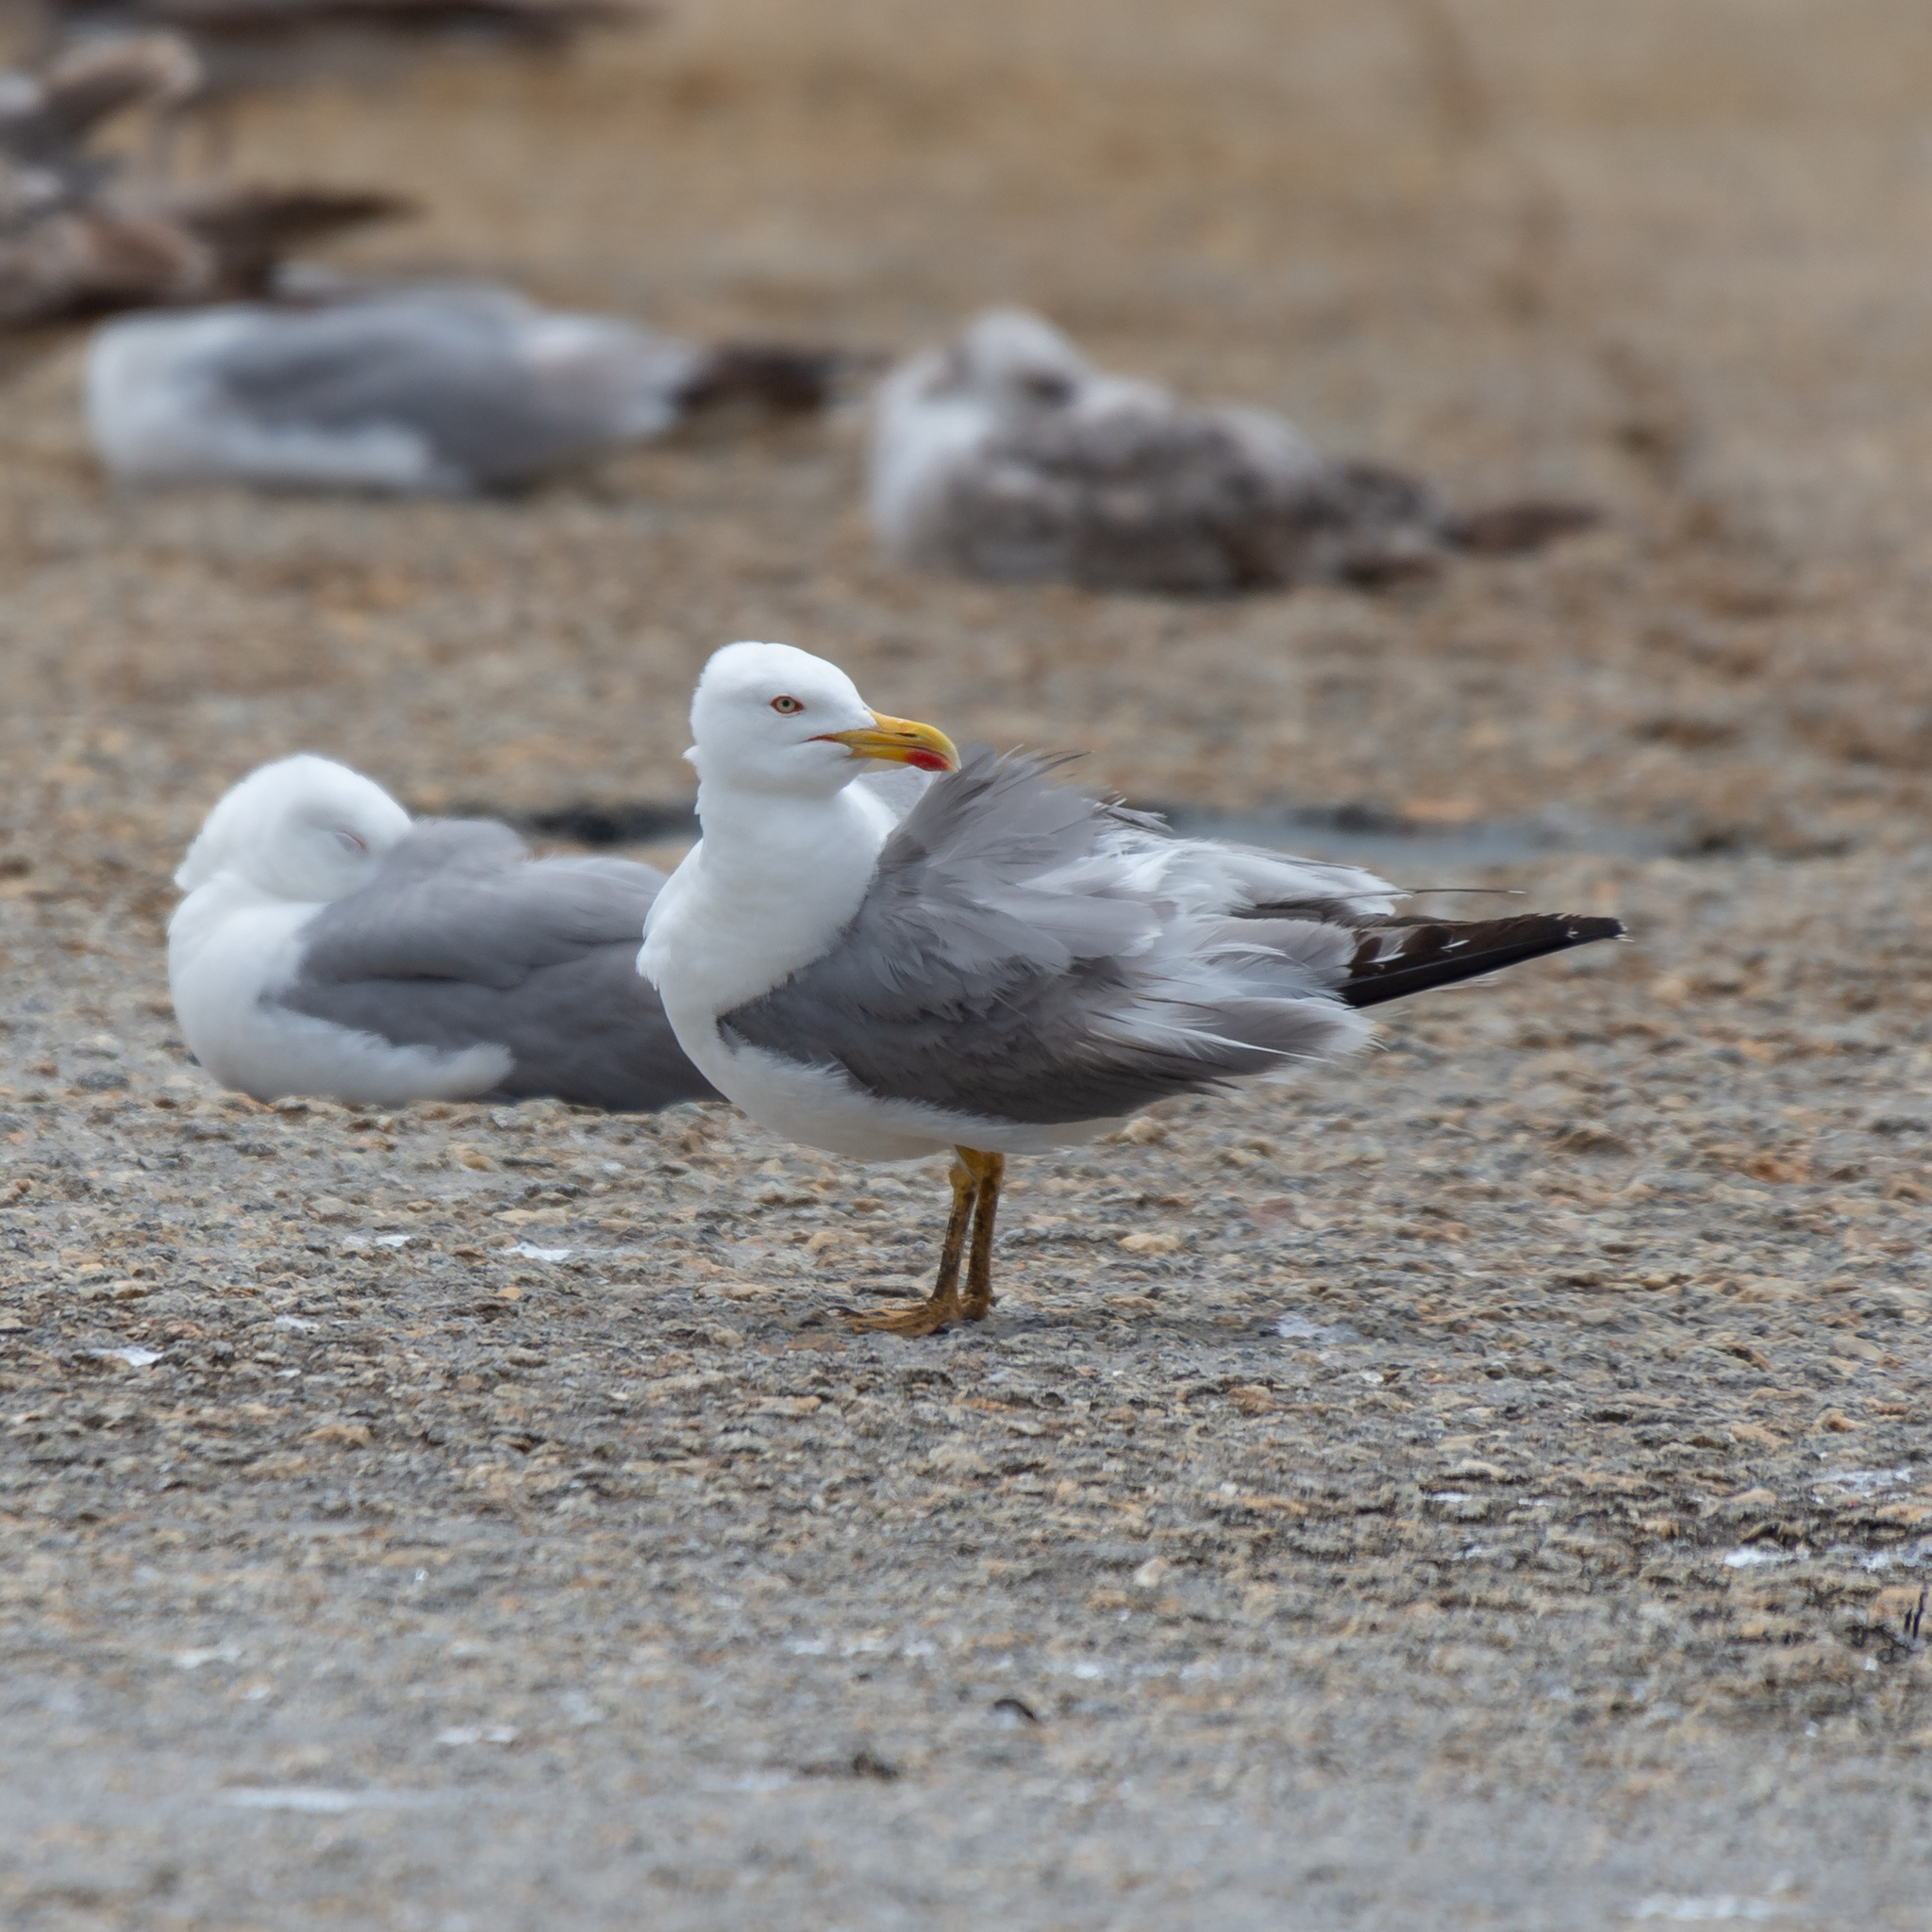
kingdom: Animalia
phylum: Chordata
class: Aves
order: Charadriiformes
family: Laridae
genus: Larus
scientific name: Larus michahellis
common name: Yellow-legged gull
